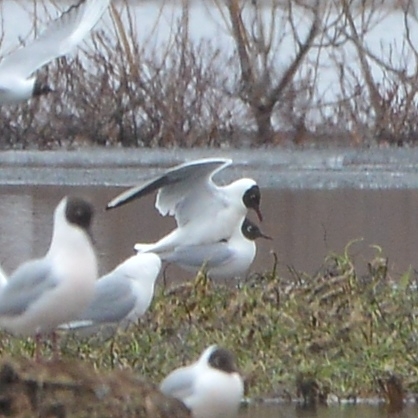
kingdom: Animalia
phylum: Chordata
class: Aves
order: Charadriiformes
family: Laridae
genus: Chroicocephalus
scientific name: Chroicocephalus ridibundus
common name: Black-headed gull
